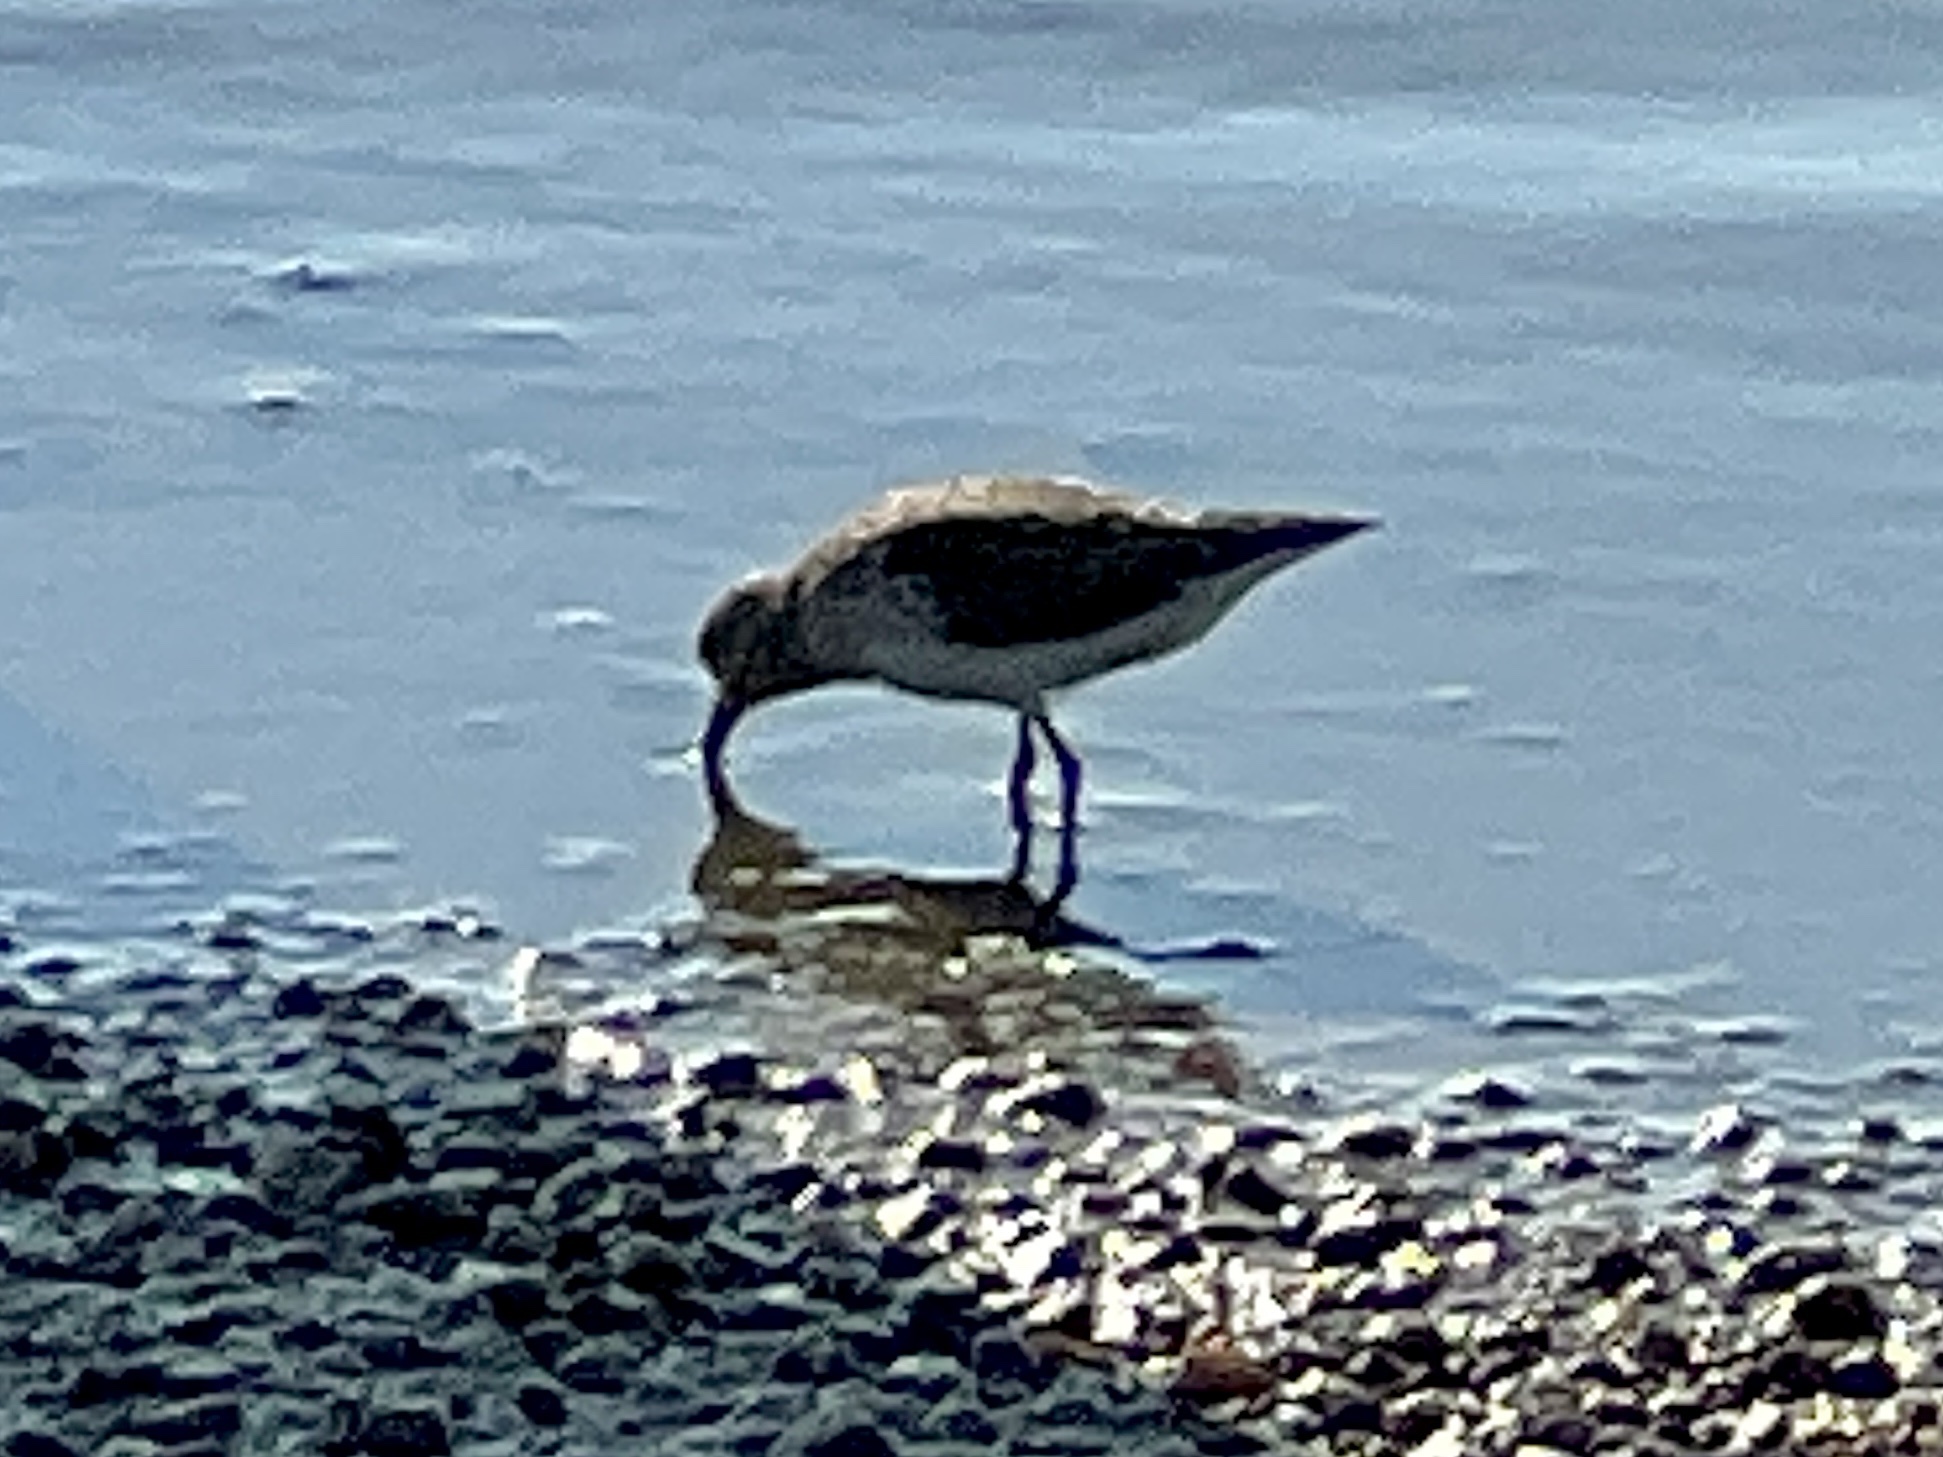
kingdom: Animalia
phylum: Chordata
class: Aves
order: Charadriiformes
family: Scolopacidae
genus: Calidris
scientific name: Calidris minutilla
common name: Least sandpiper
